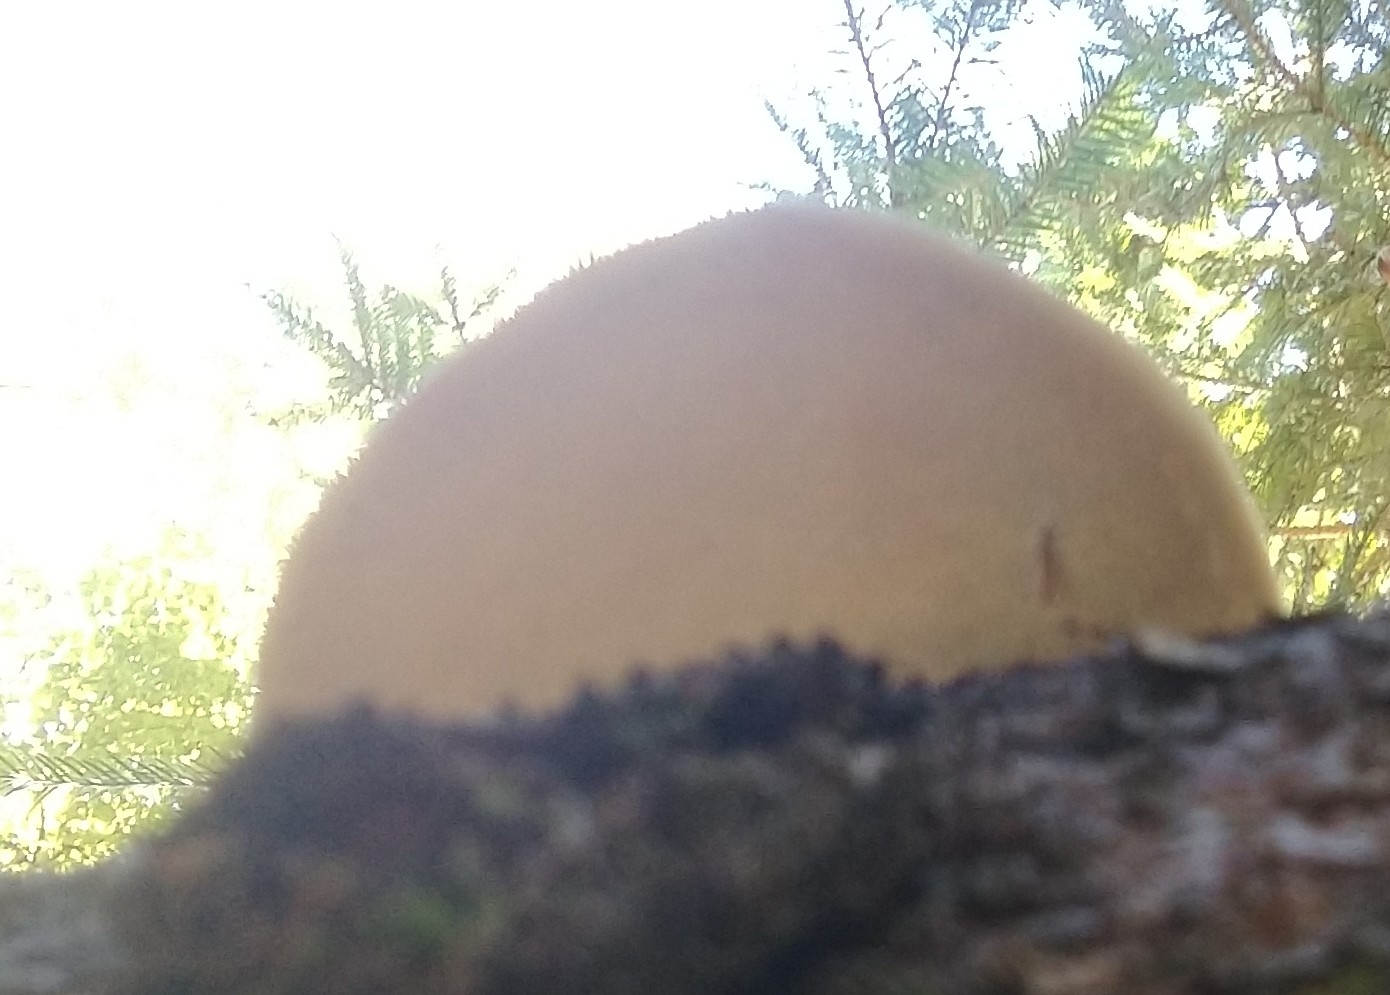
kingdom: Fungi
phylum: Basidiomycota
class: Agaricomycetes
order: Polyporales
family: Fomitopsidaceae
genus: Fomitopsis
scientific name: Fomitopsis pinicola
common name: Red-belted bracket
